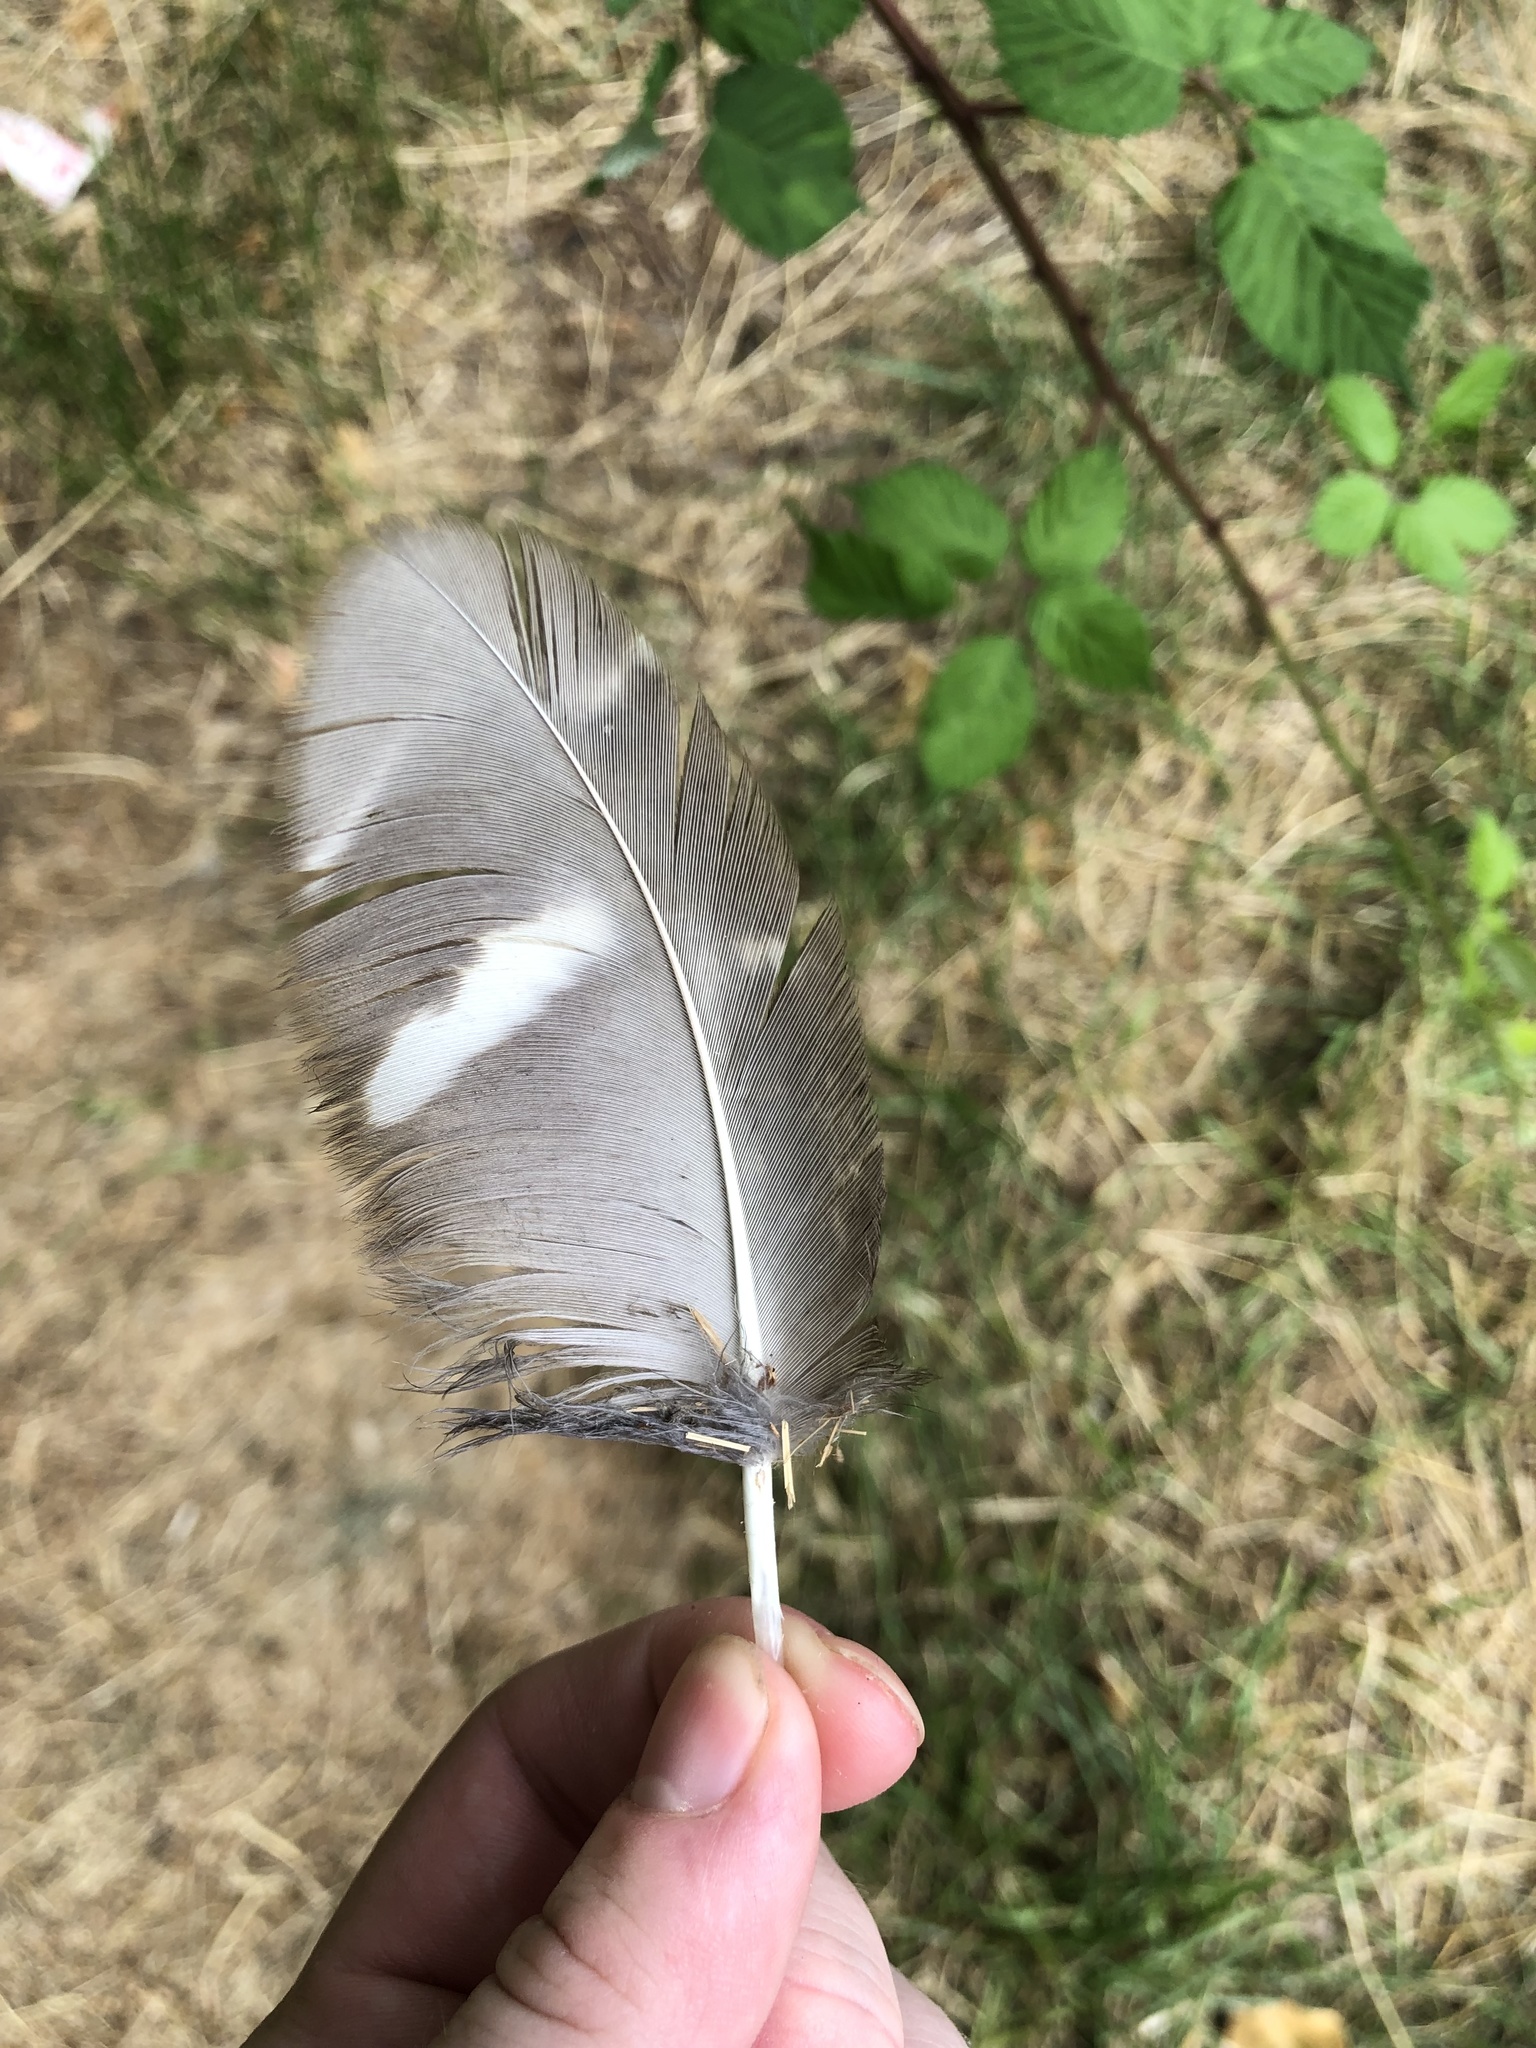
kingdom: Animalia
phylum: Chordata
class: Aves
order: Strigiformes
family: Strigidae
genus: Strix
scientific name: Strix varia
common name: Barred owl
